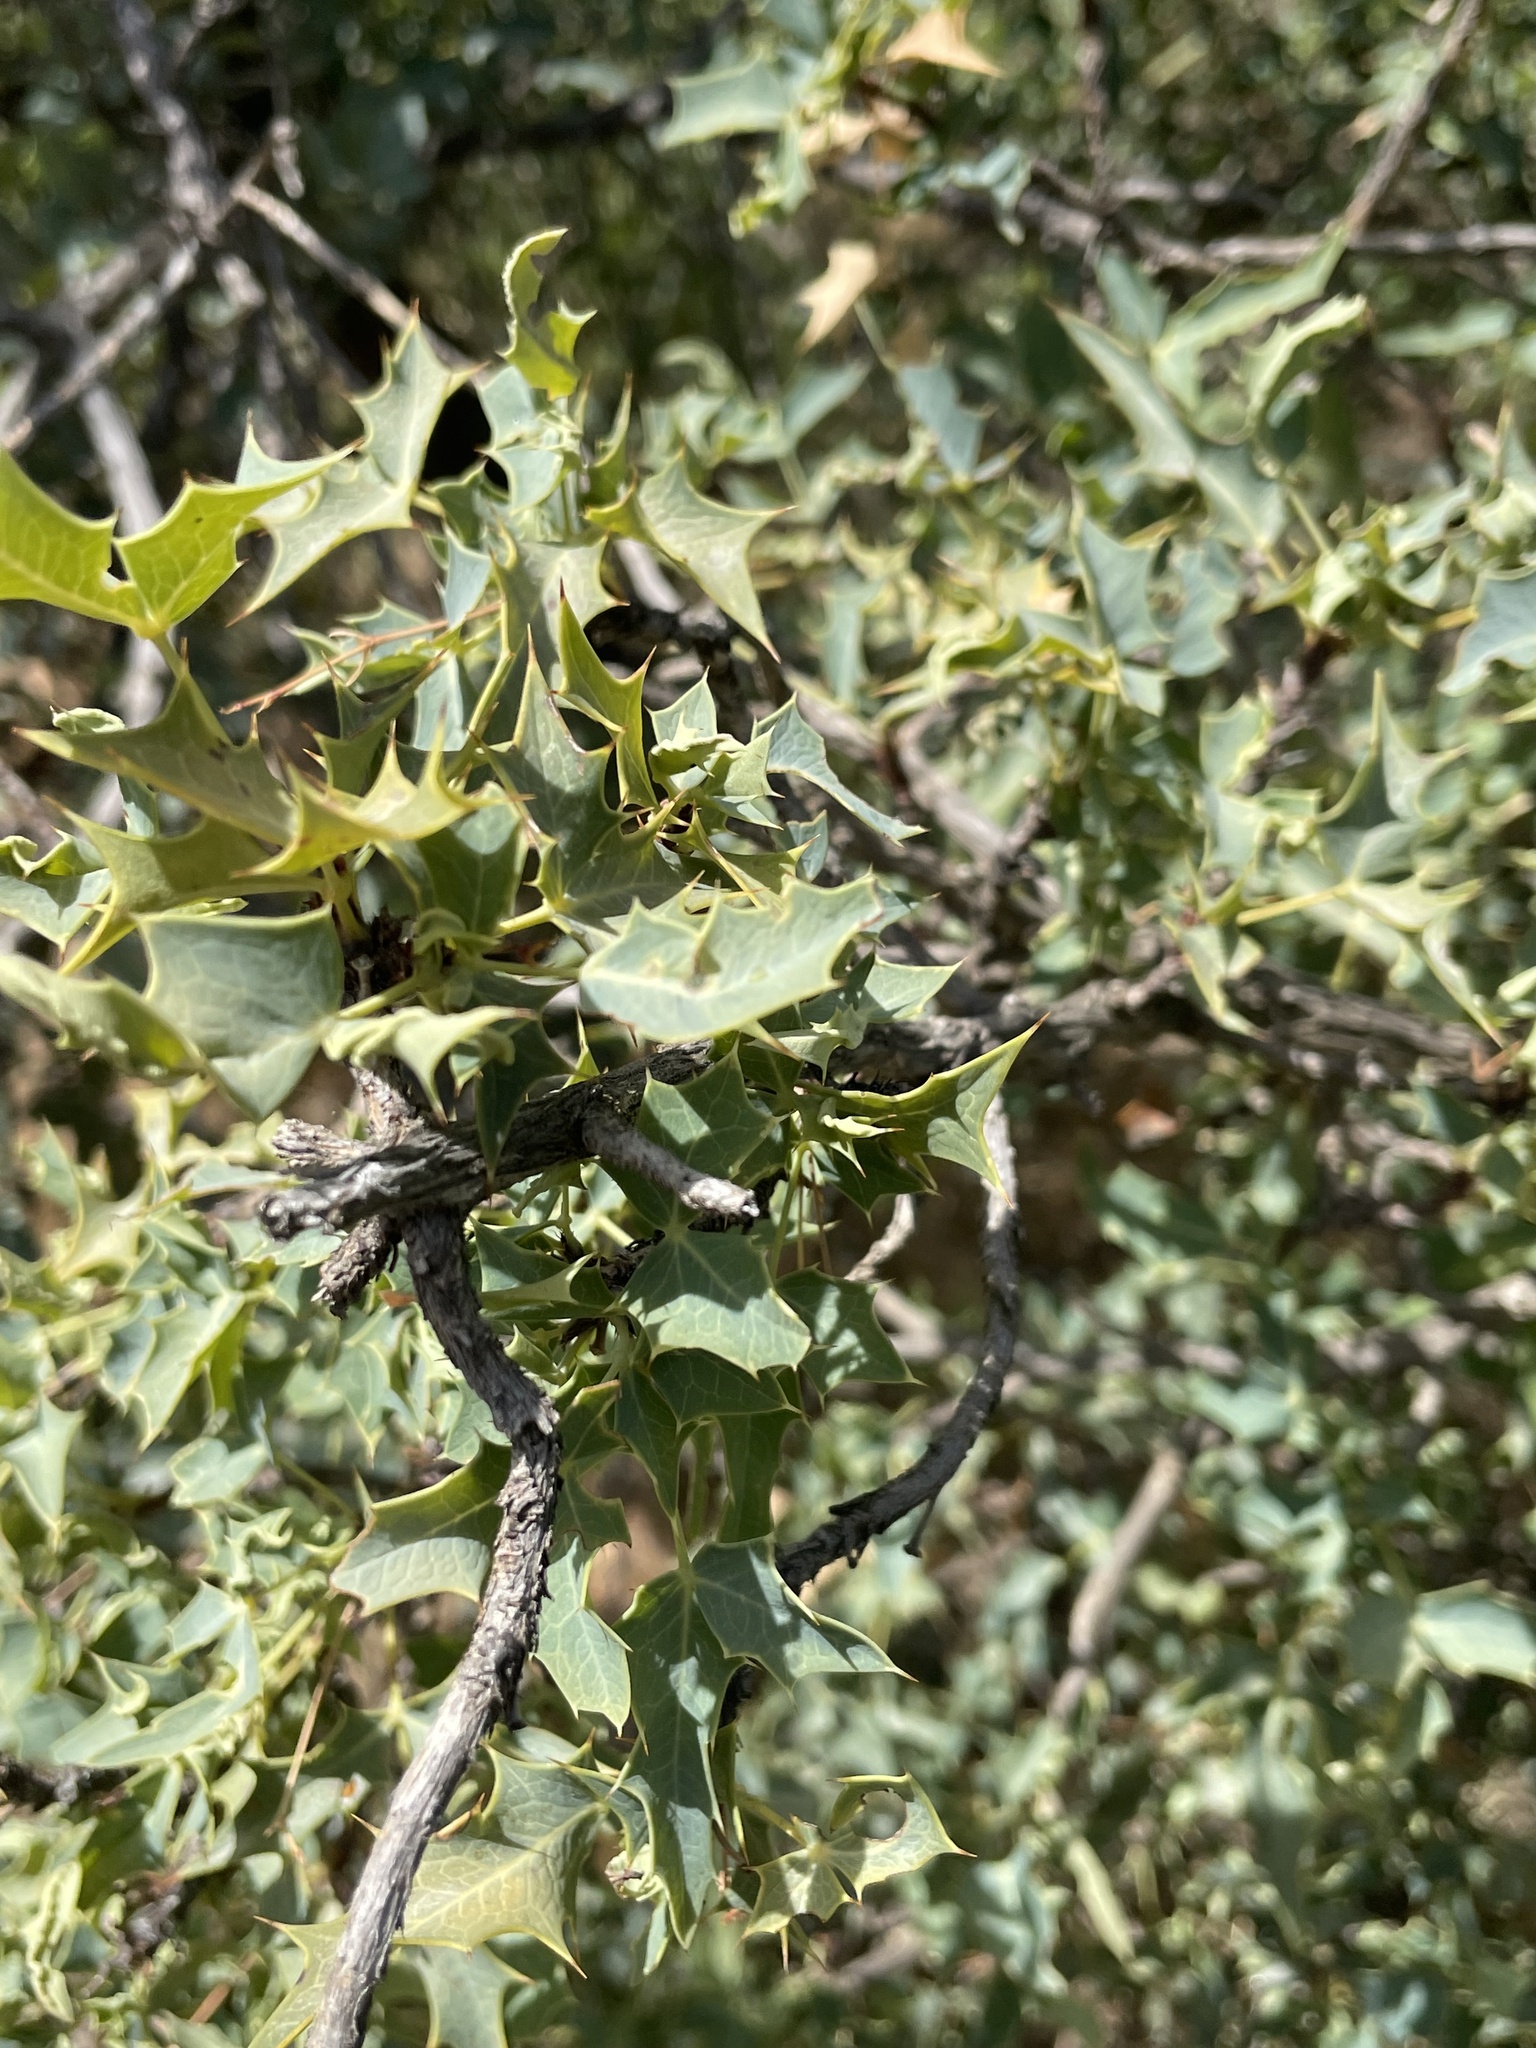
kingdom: Plantae
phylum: Tracheophyta
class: Magnoliopsida
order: Ranunculales
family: Berberidaceae
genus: Alloberberis
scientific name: Alloberberis haematocarpa
